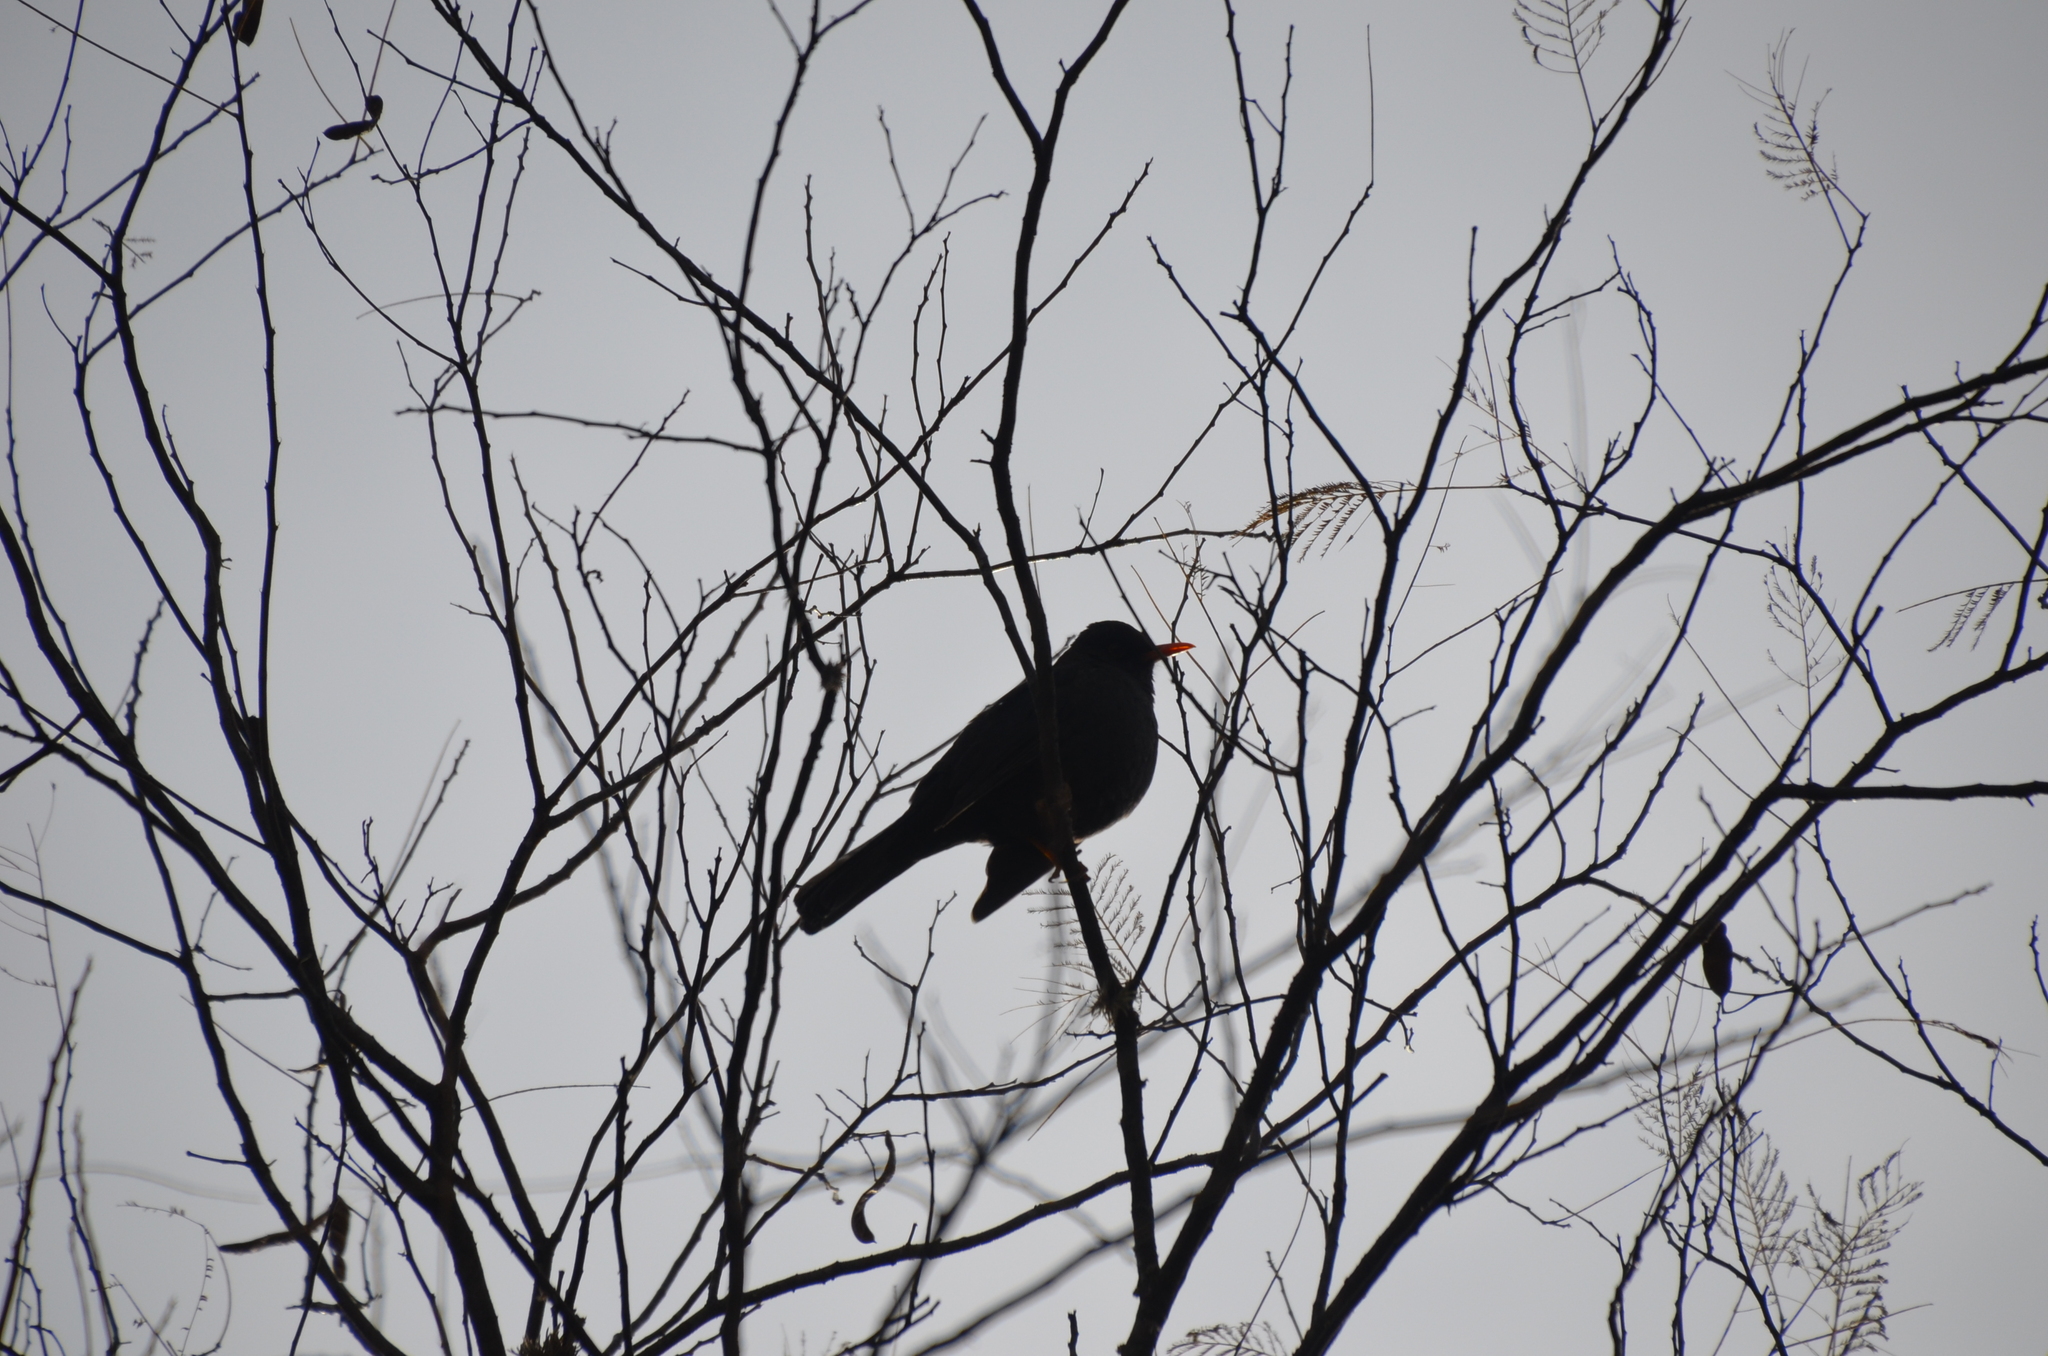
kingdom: Animalia
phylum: Chordata
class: Aves
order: Passeriformes
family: Turdidae
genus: Turdus
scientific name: Turdus chiguanco
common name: Chiguanco thrush
